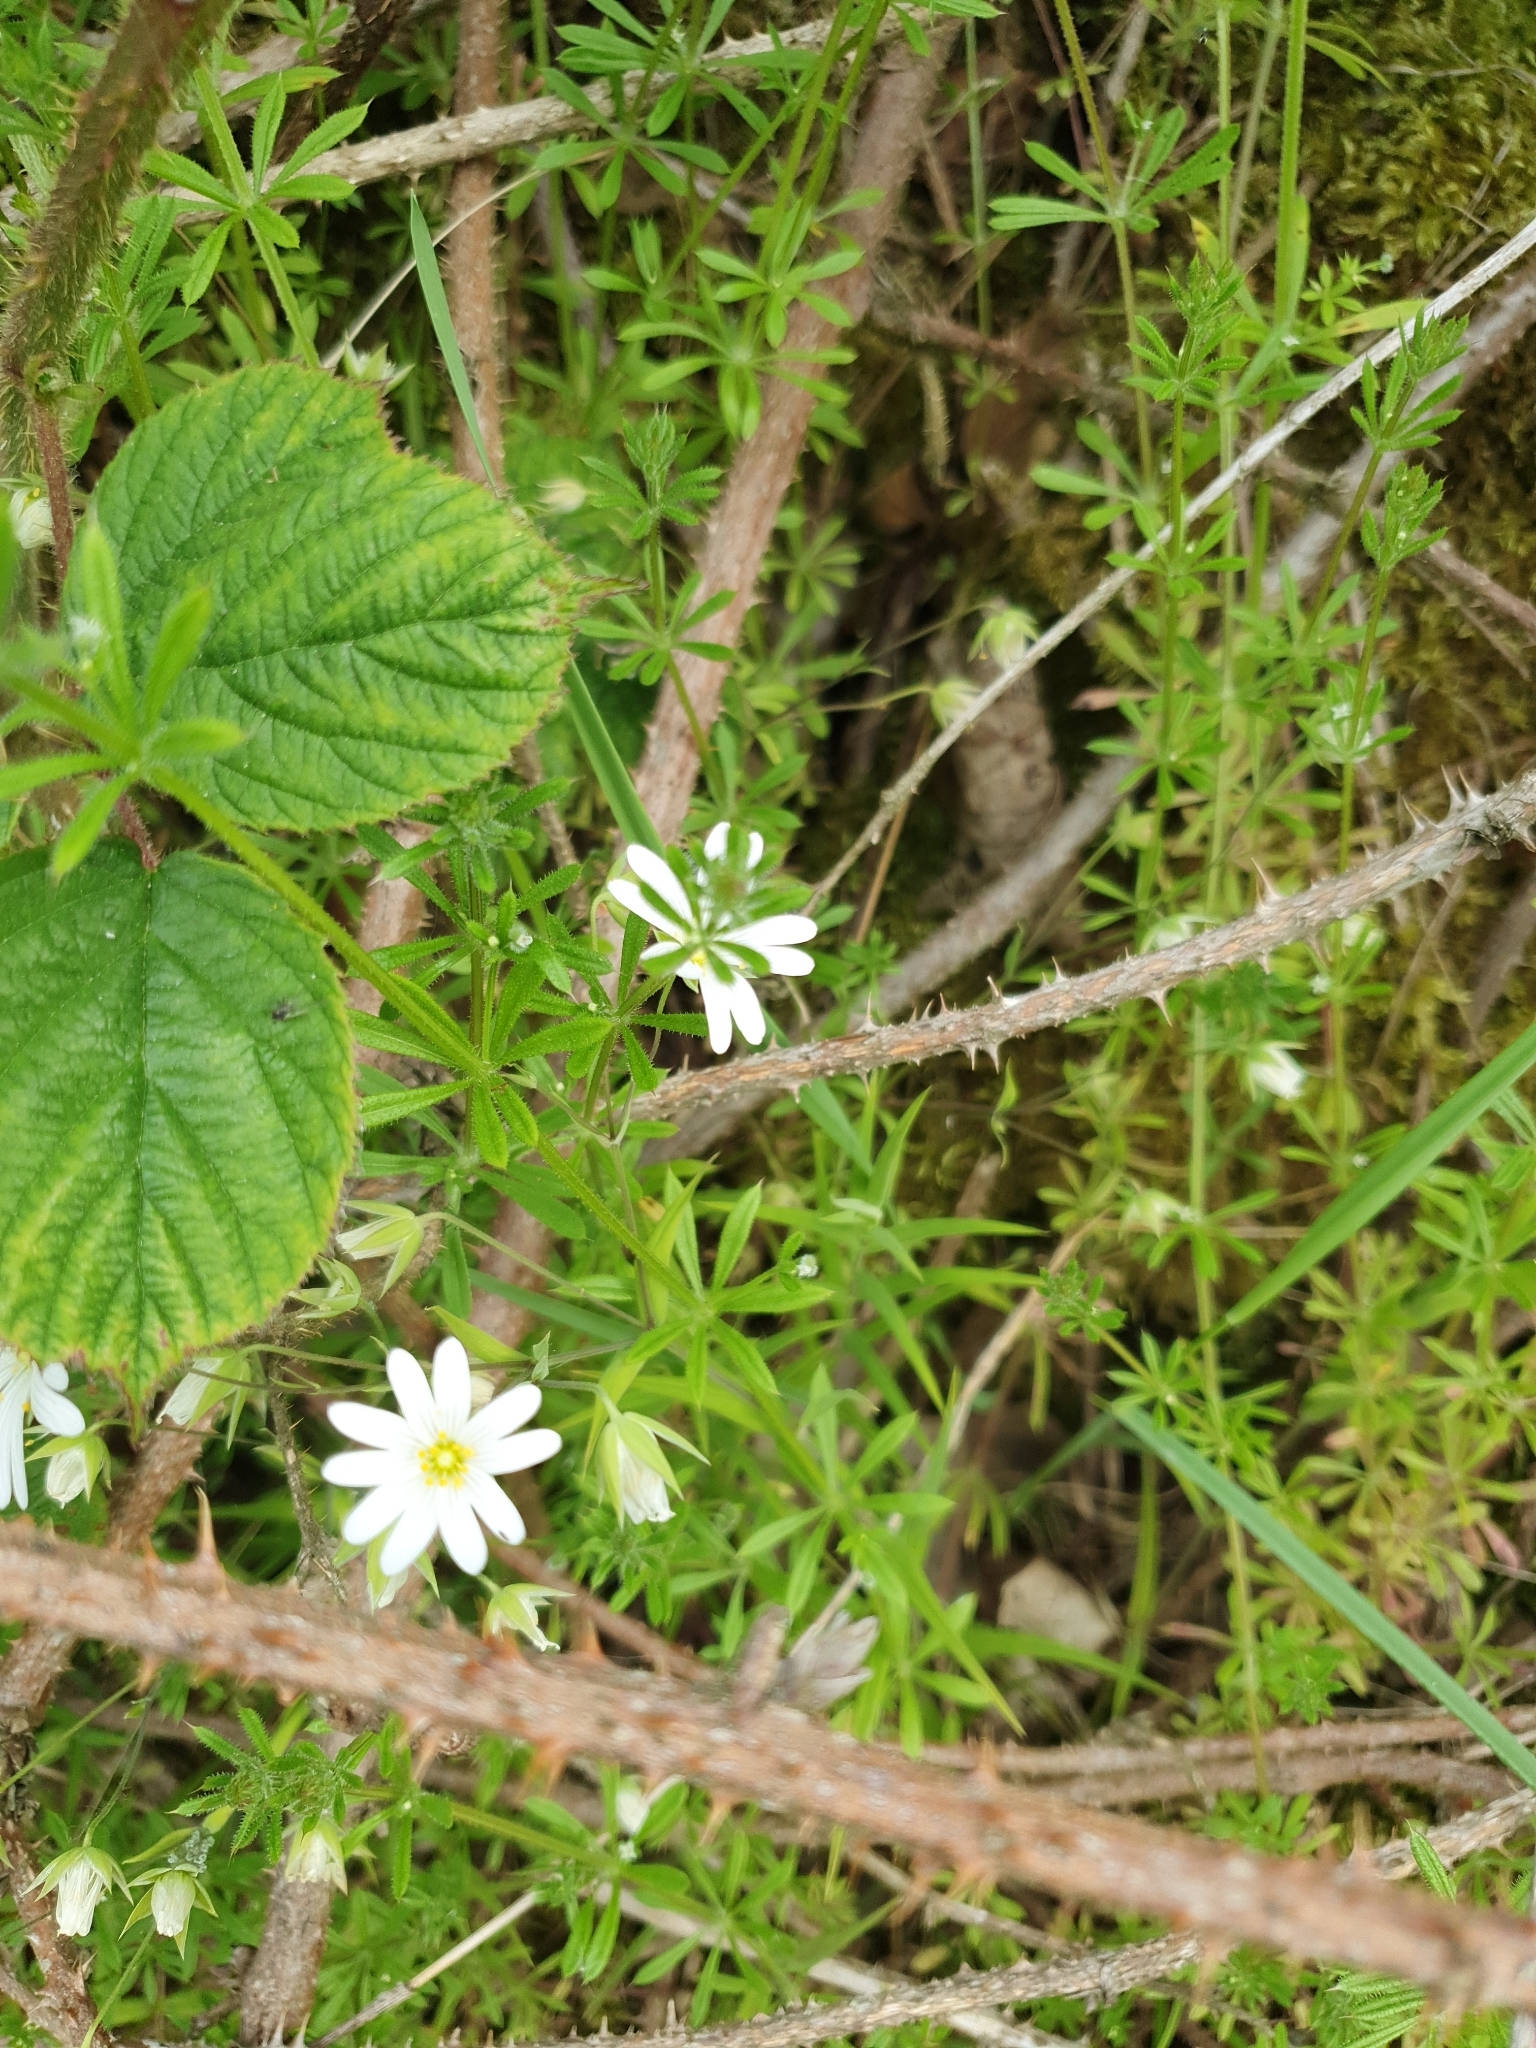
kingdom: Plantae
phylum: Tracheophyta
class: Magnoliopsida
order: Caryophyllales
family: Caryophyllaceae
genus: Rabelera
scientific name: Rabelera holostea
